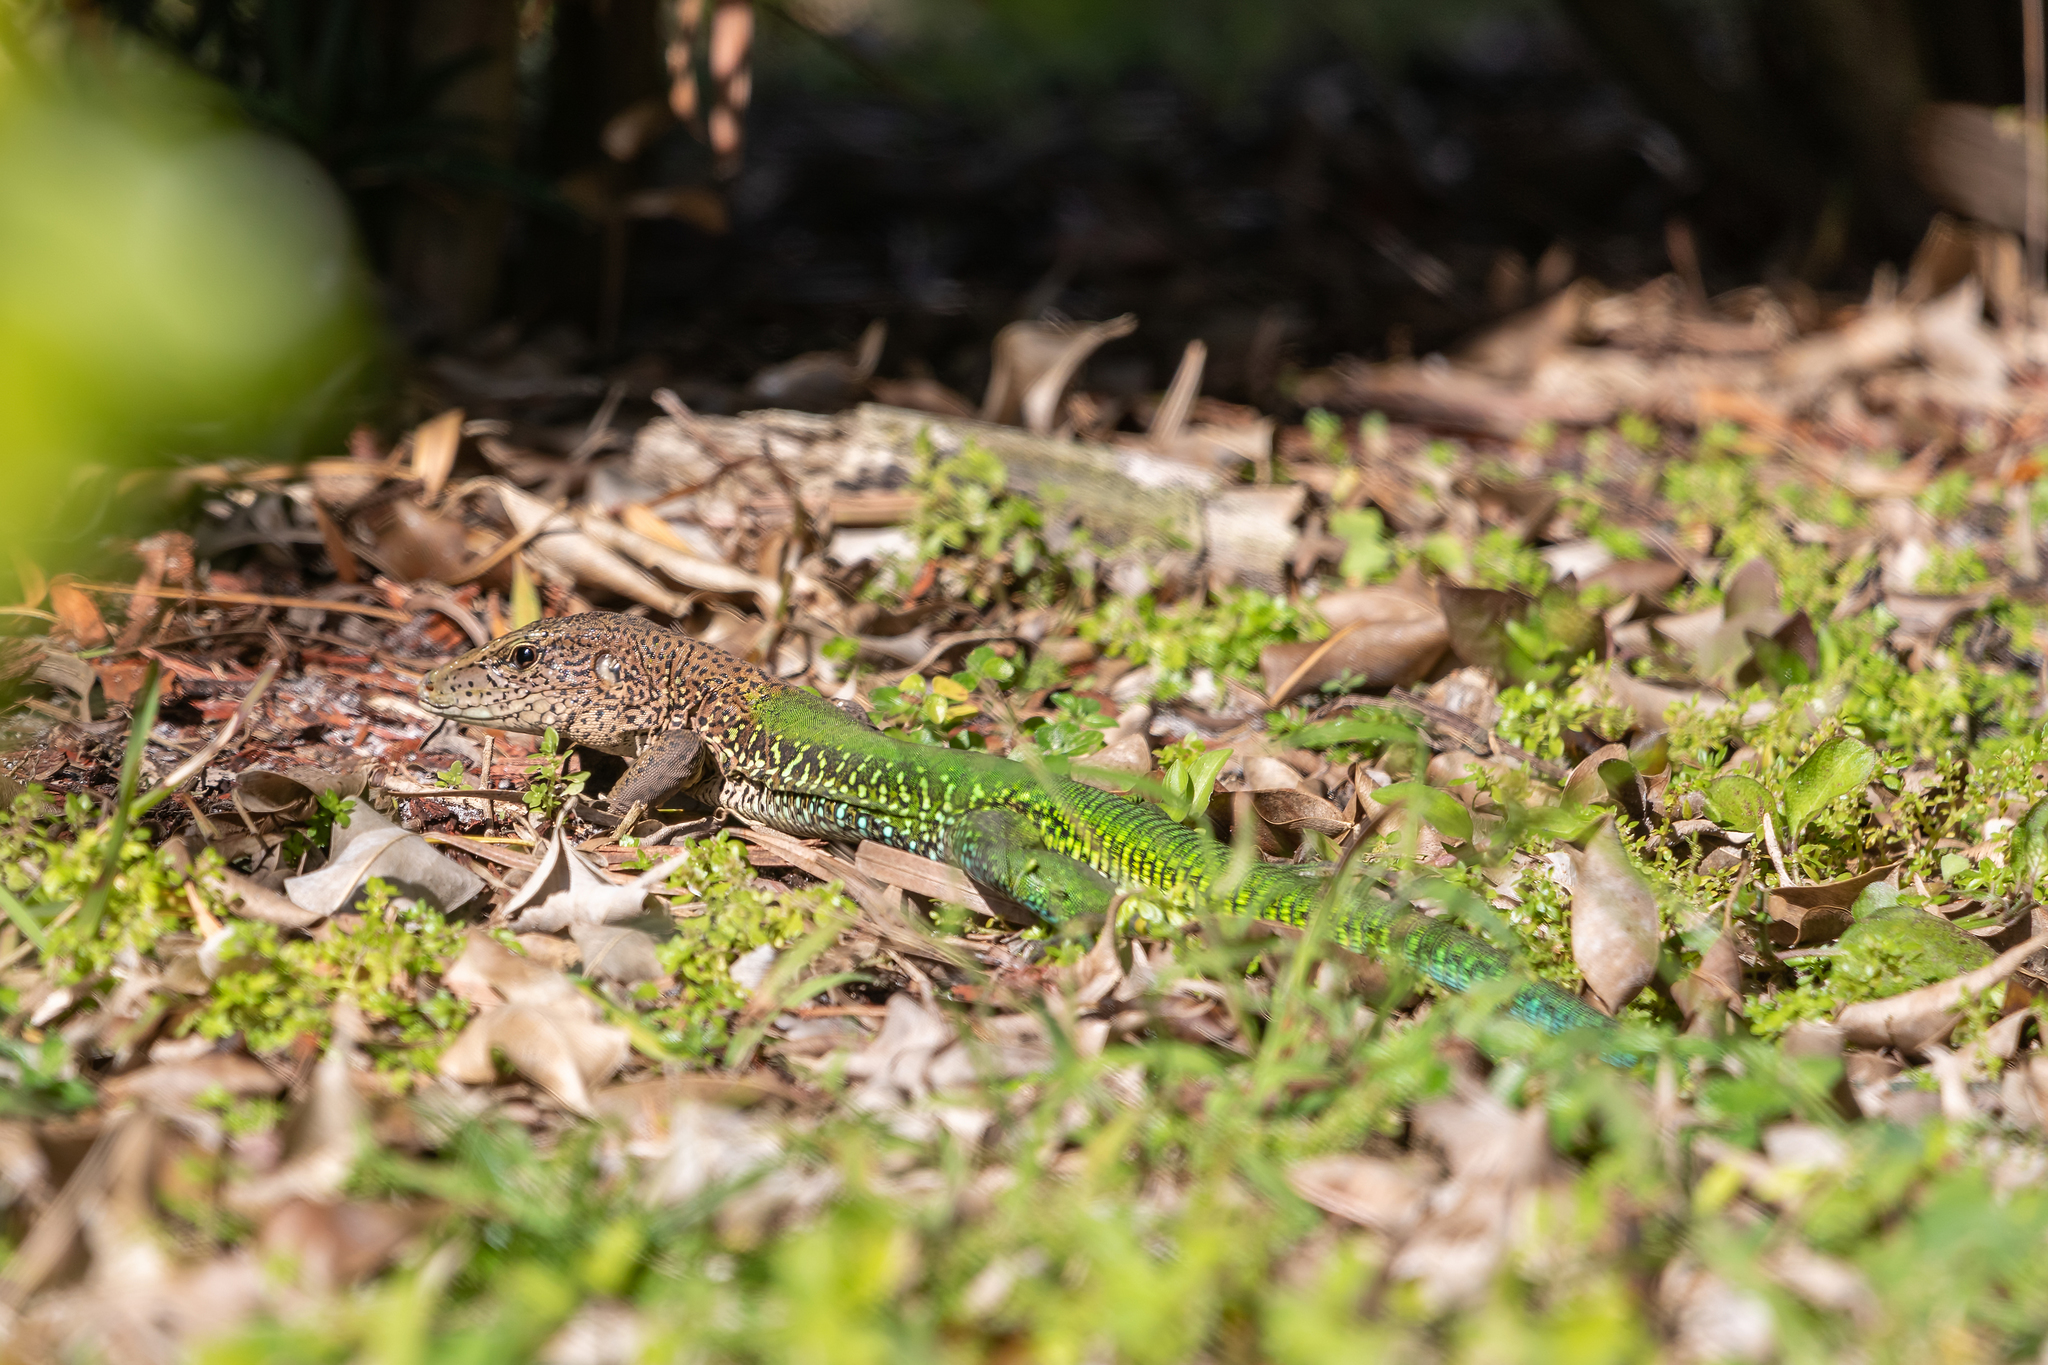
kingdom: Animalia
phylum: Chordata
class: Squamata
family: Teiidae
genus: Ameiva
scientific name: Ameiva ameiva
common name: Giant ameiva
